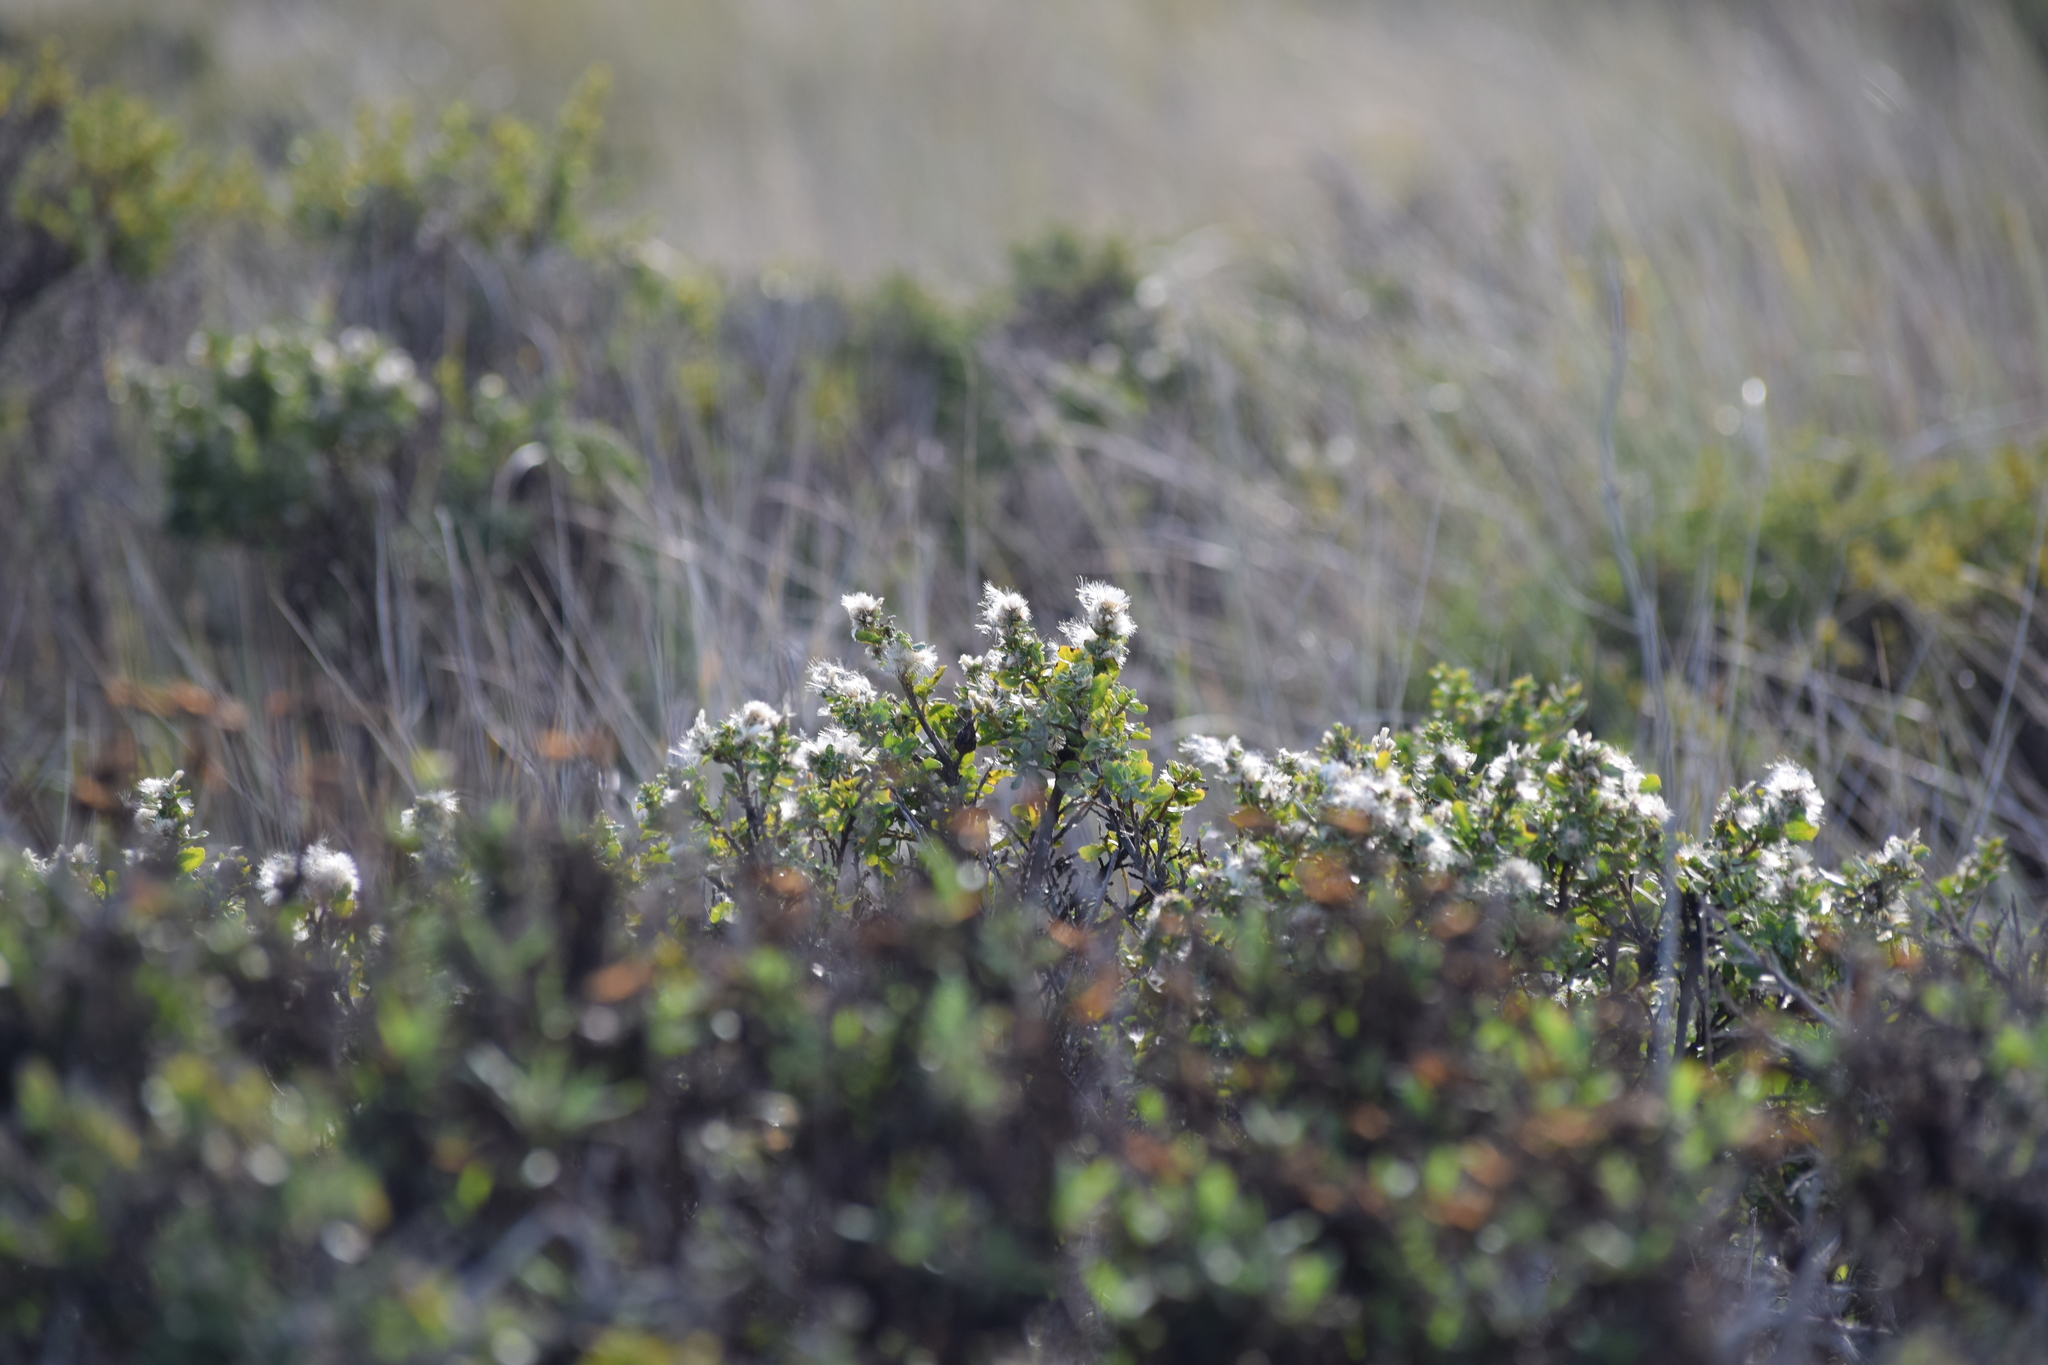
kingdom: Plantae
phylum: Tracheophyta
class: Magnoliopsida
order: Asterales
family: Asteraceae
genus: Baccharis
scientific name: Baccharis pilularis
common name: Coyotebrush
